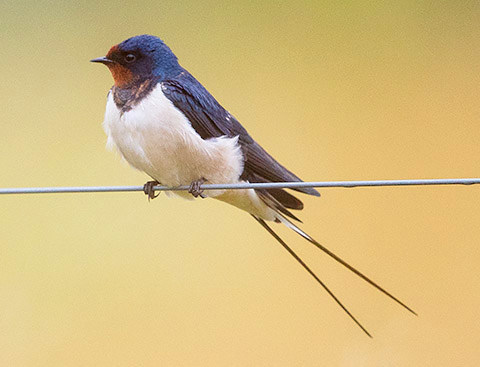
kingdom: Animalia
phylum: Chordata
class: Aves
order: Passeriformes
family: Hirundinidae
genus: Hirundo
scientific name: Hirundo rustica
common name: Barn swallow
